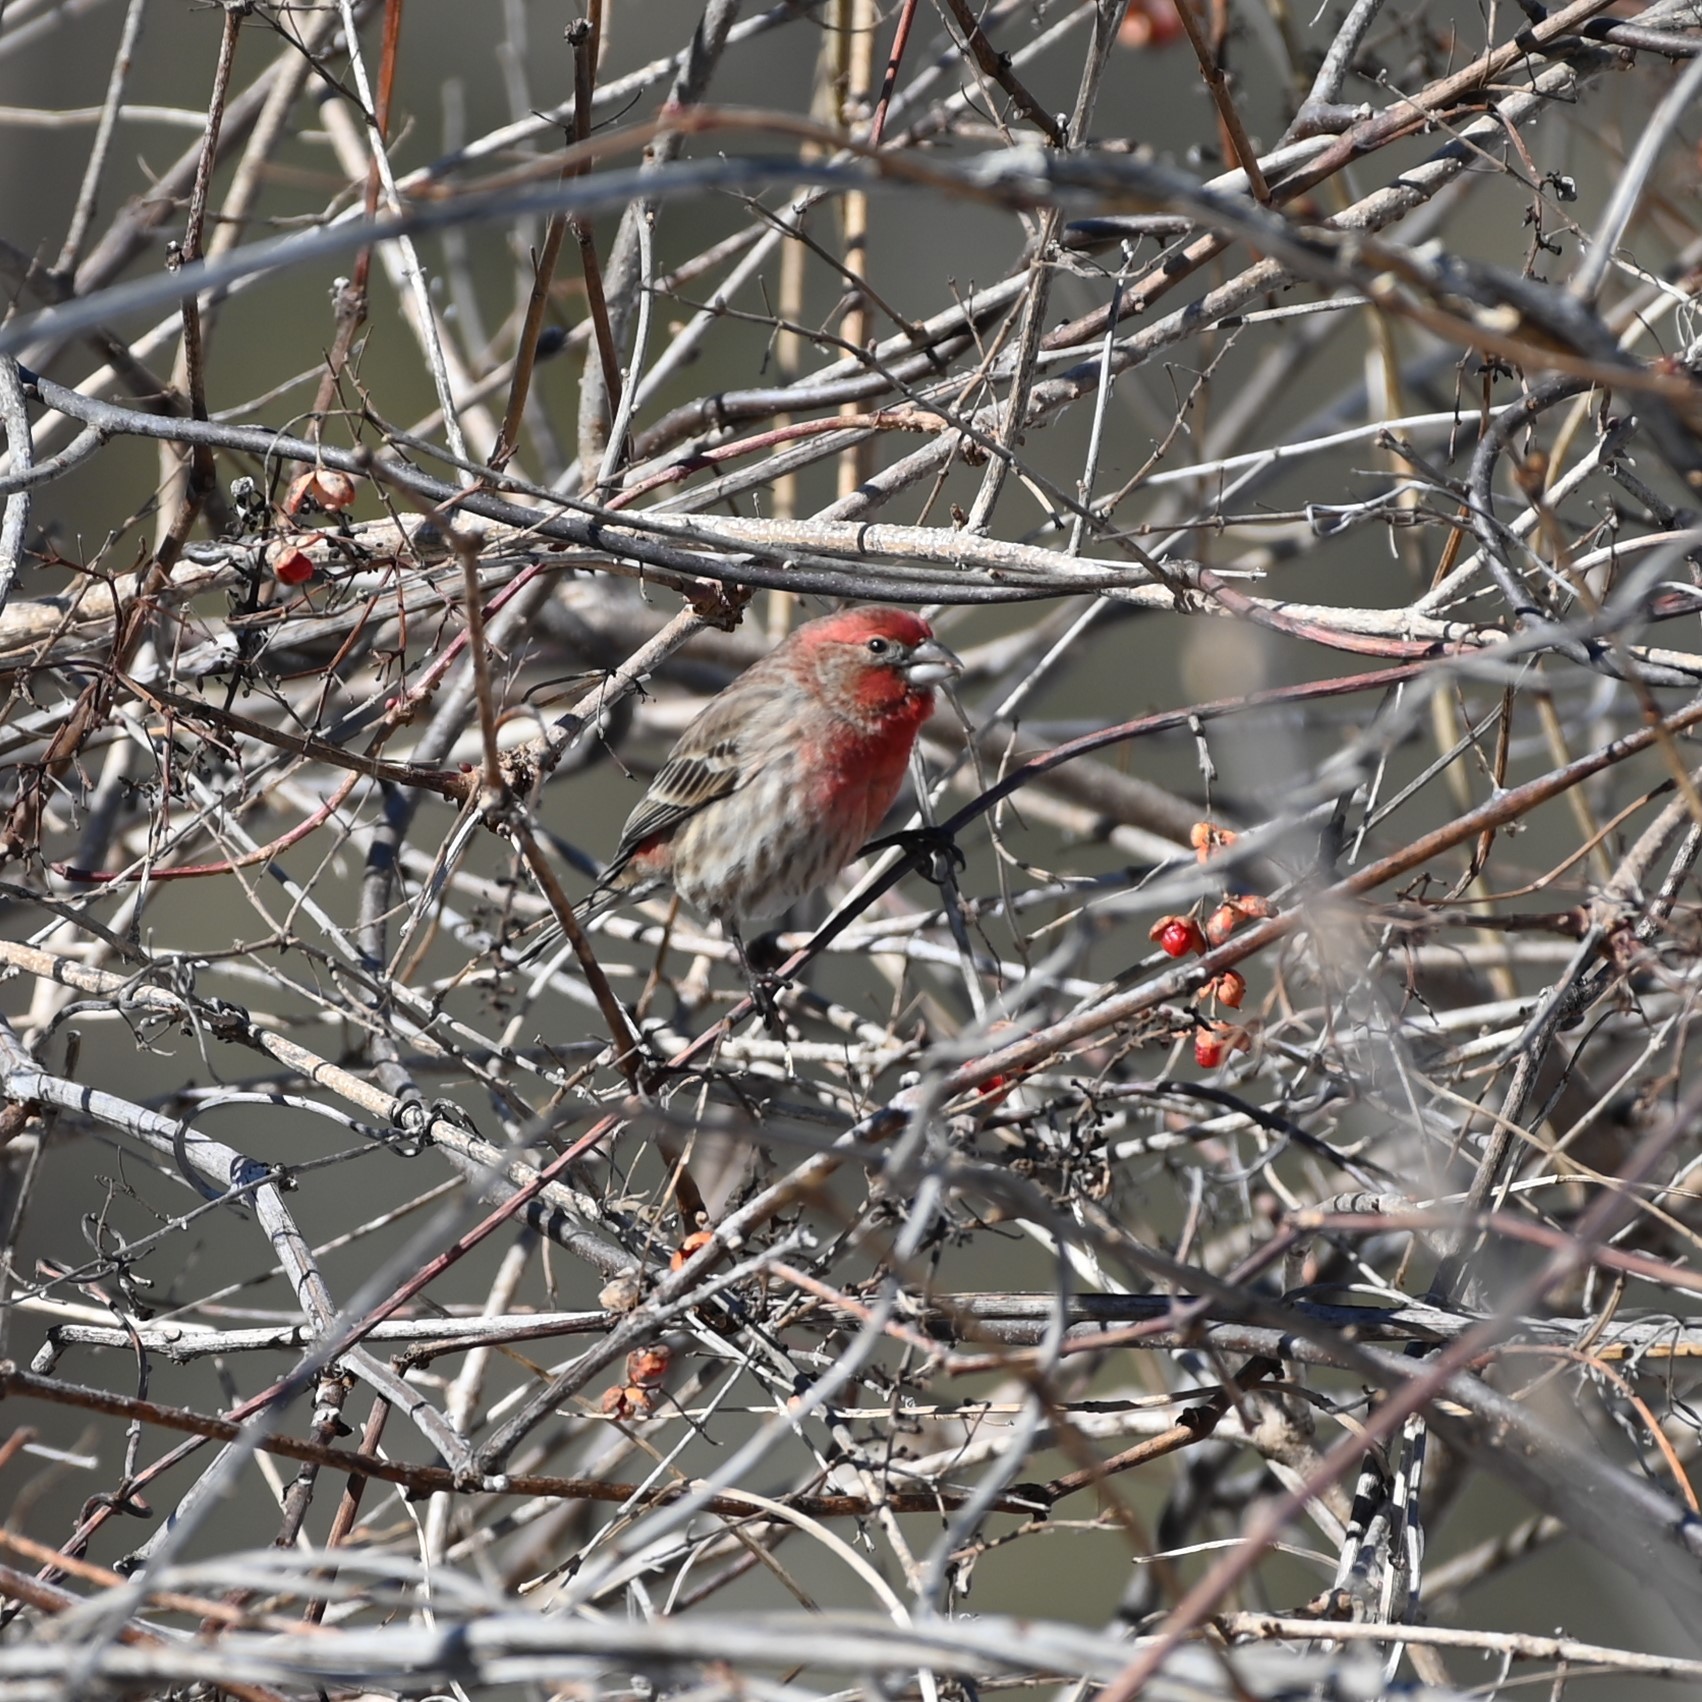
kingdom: Animalia
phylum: Chordata
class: Aves
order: Passeriformes
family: Fringillidae
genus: Haemorhous
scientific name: Haemorhous mexicanus
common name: House finch
